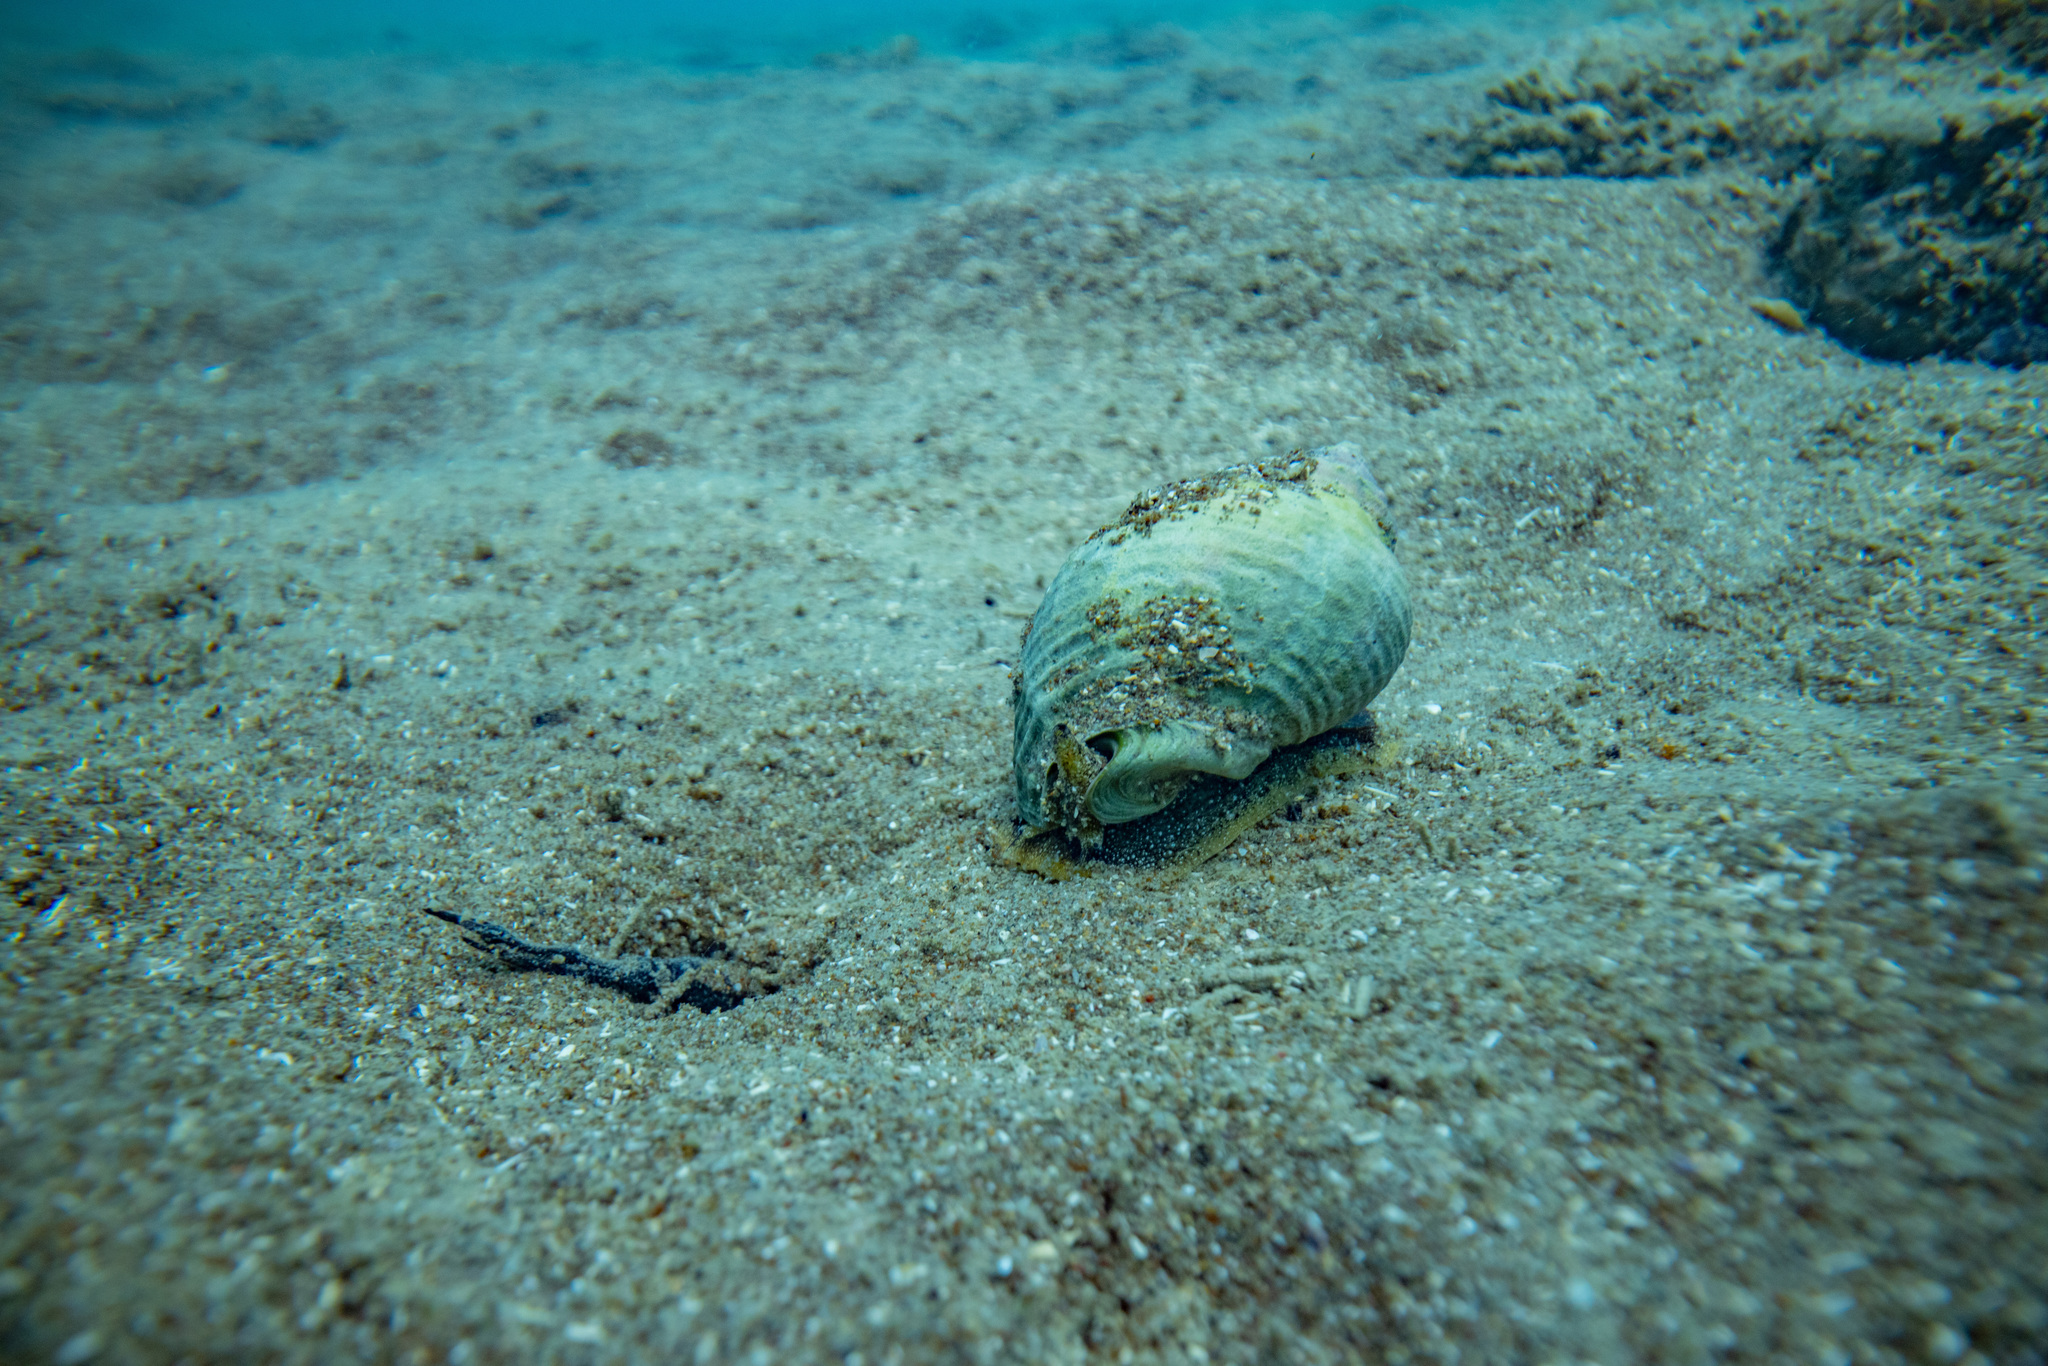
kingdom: Animalia
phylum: Mollusca
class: Gastropoda
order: Neogastropoda
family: Cominellidae
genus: Cominella
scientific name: Cominella adspersa
